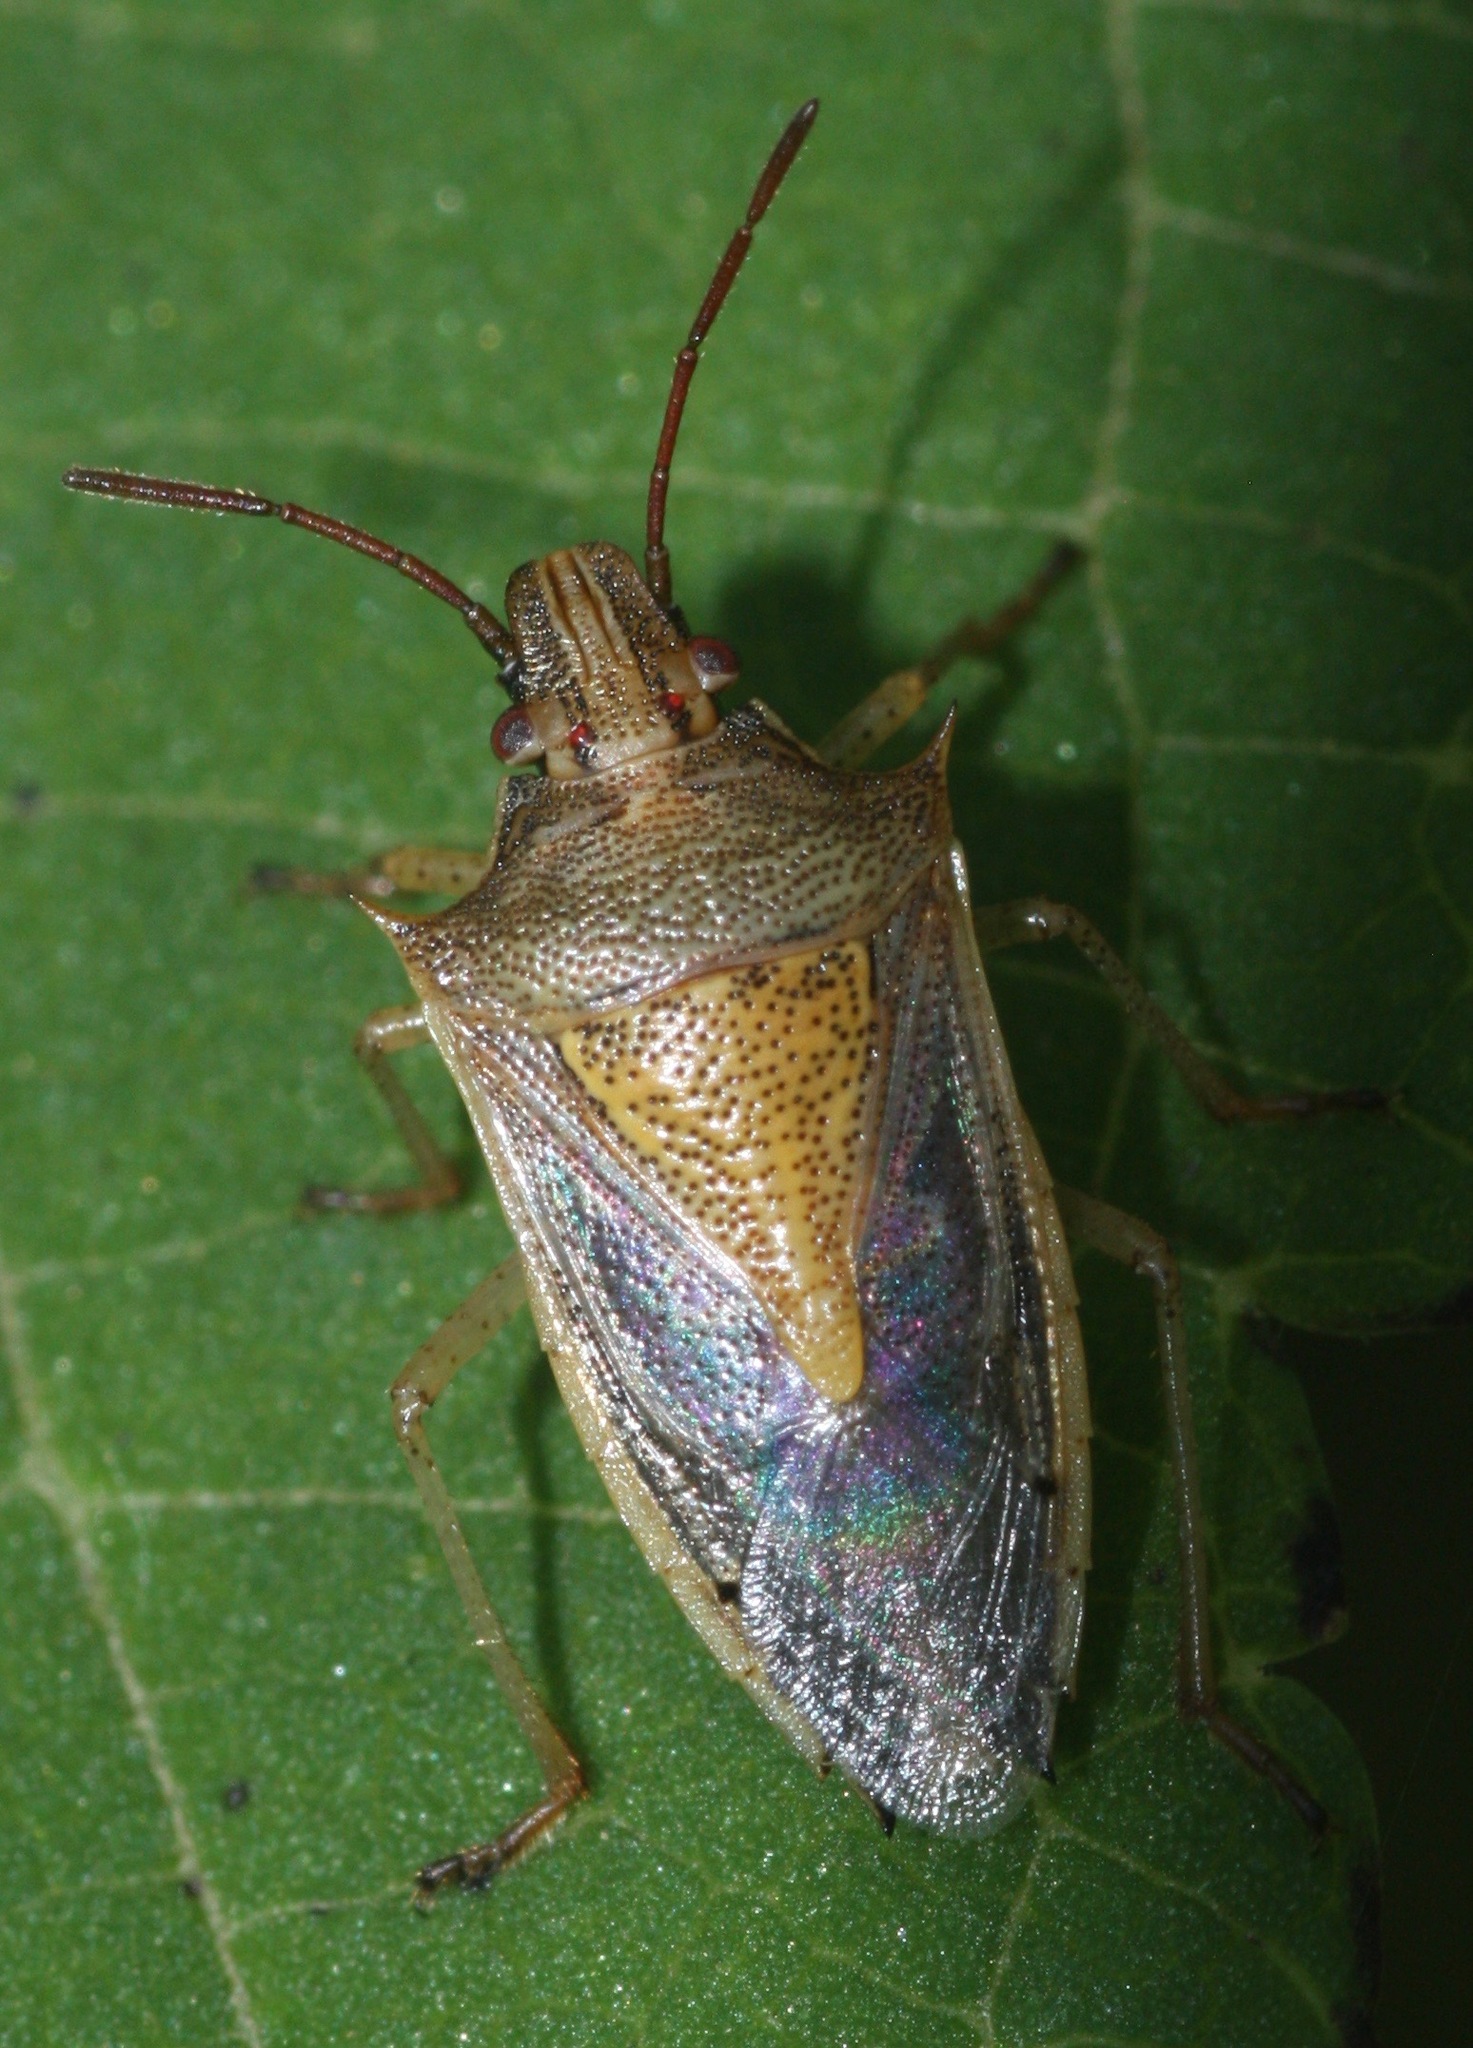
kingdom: Animalia
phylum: Arthropoda
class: Insecta
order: Hemiptera
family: Pentatomidae
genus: Oebalus
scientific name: Oebalus pugnax
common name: Rice stink bug
